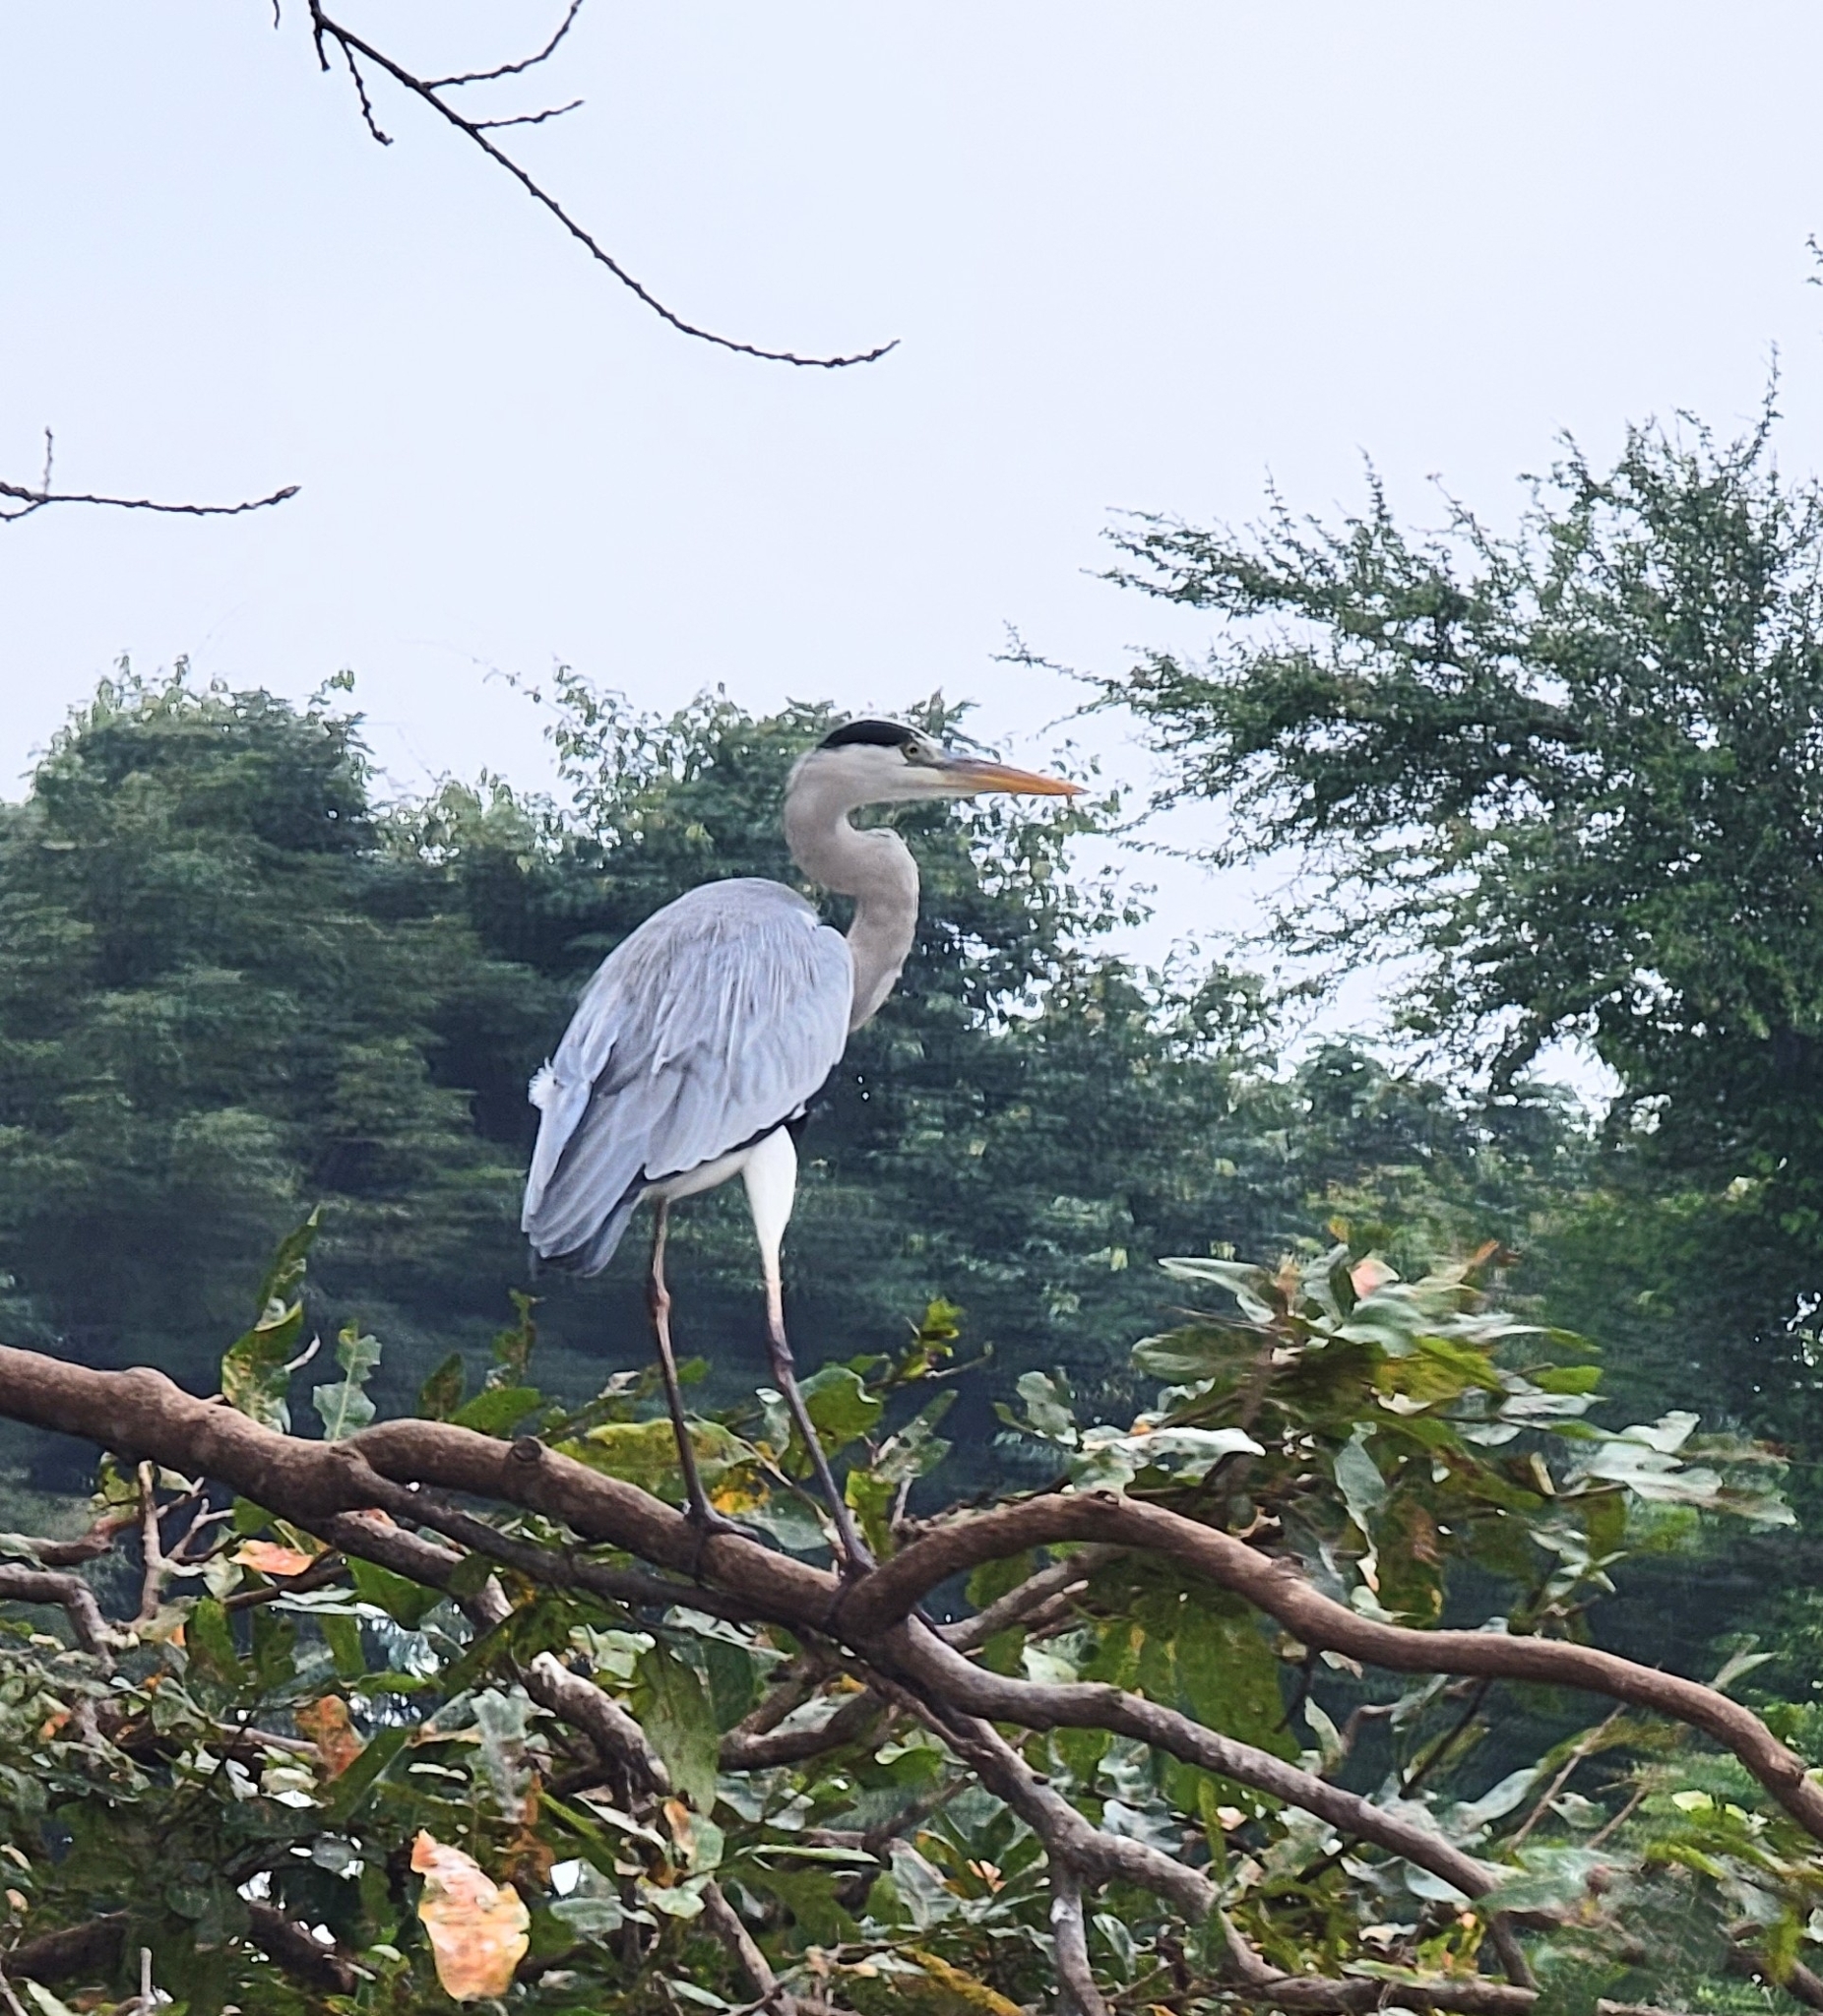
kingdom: Animalia
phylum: Chordata
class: Aves
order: Pelecaniformes
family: Ardeidae
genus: Ardea
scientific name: Ardea cinerea
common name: Grey heron
